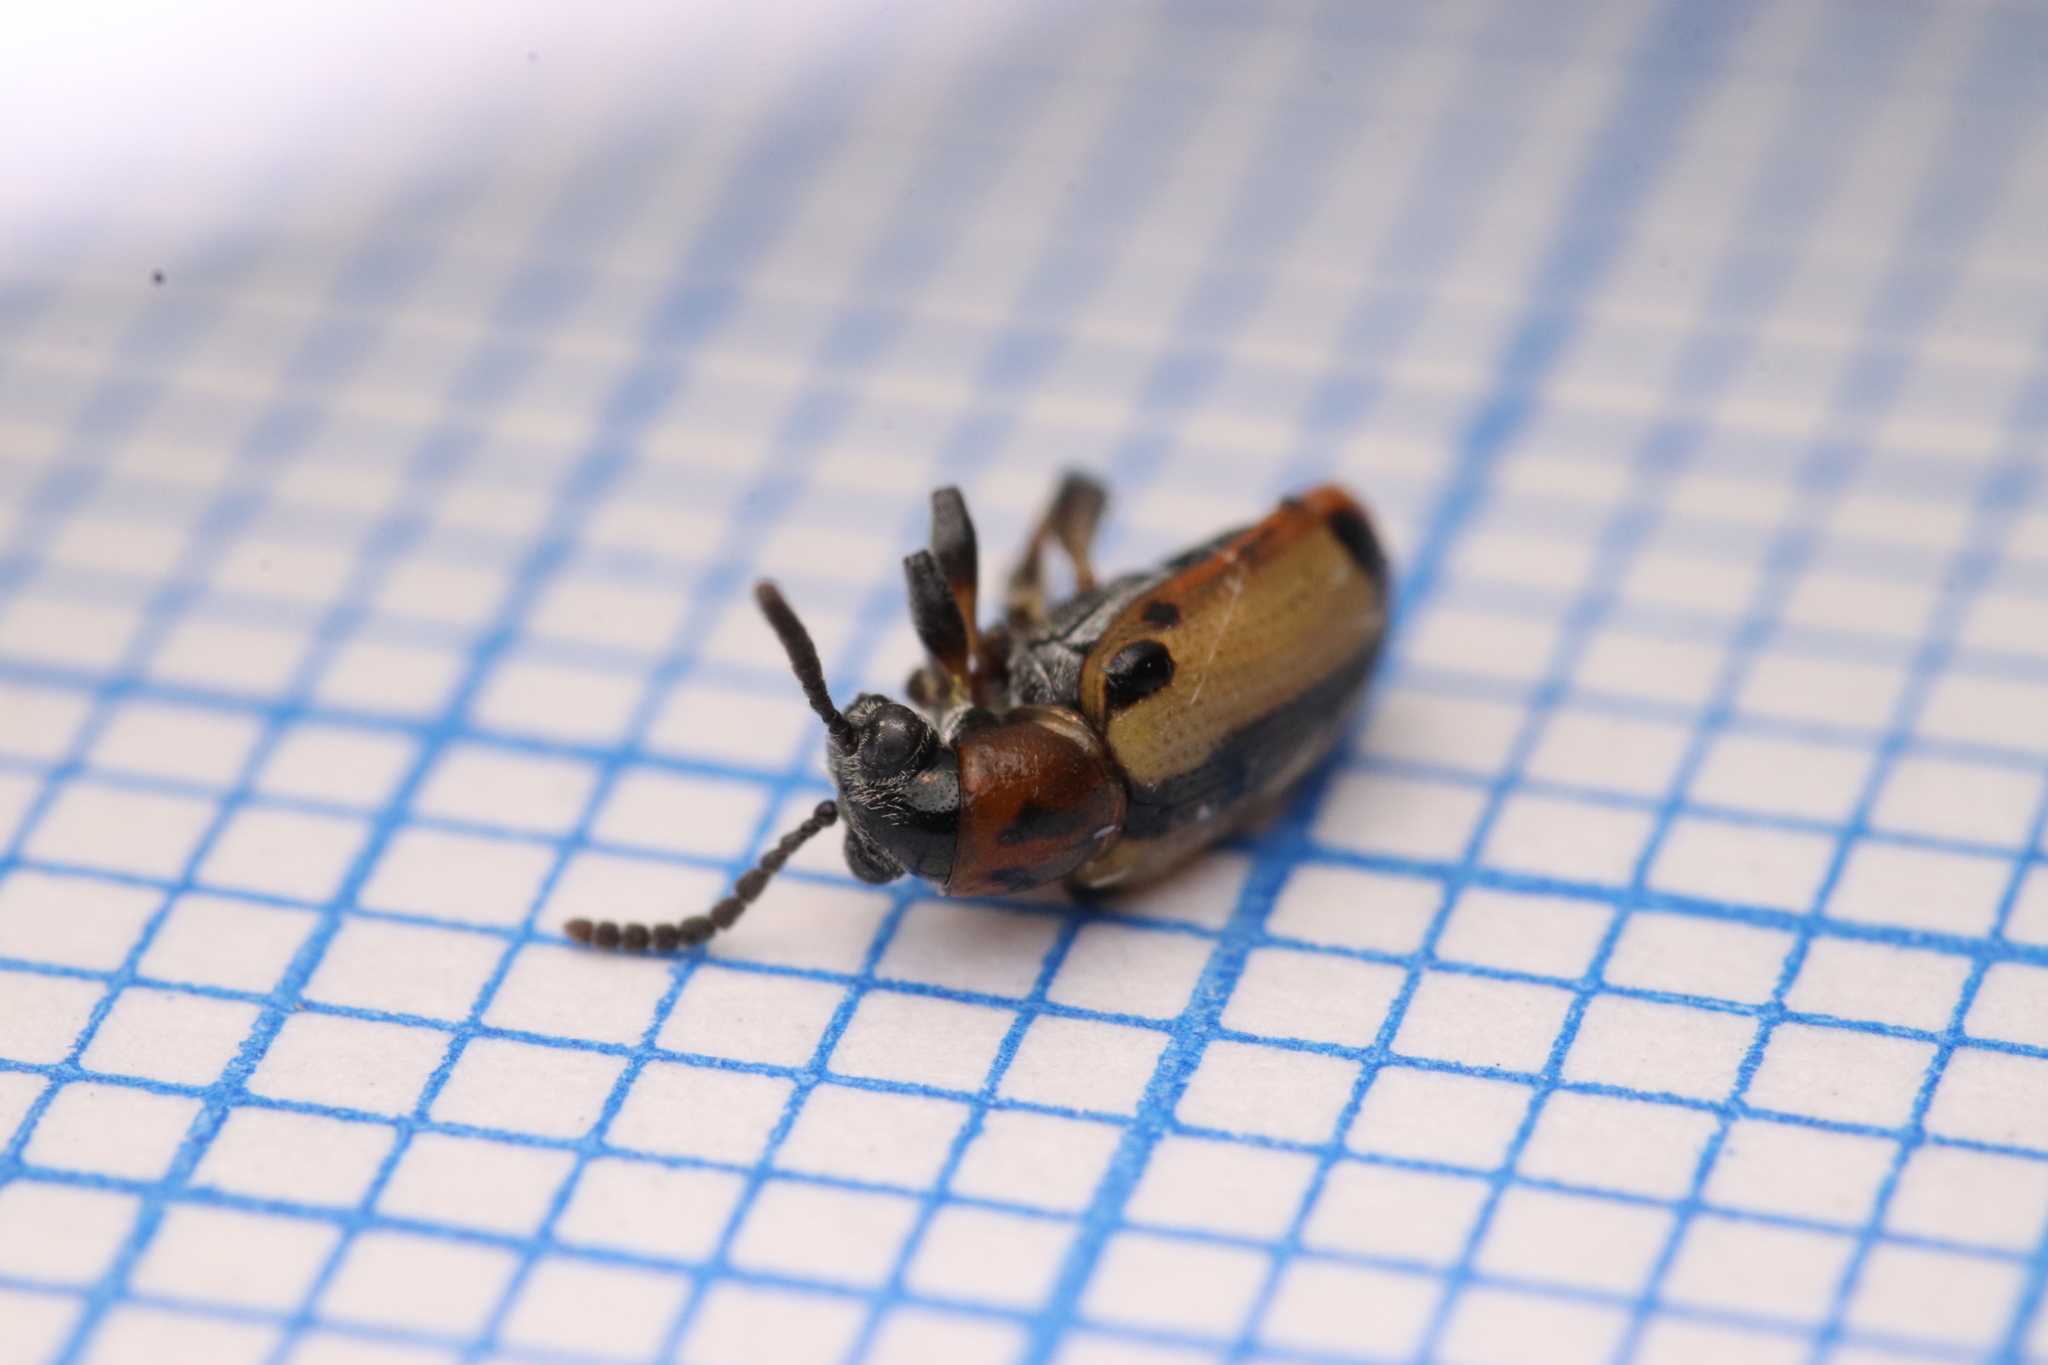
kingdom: Animalia
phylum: Arthropoda
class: Insecta
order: Coleoptera
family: Chrysomelidae
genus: Crioceris
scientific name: Crioceris paracenthesis
